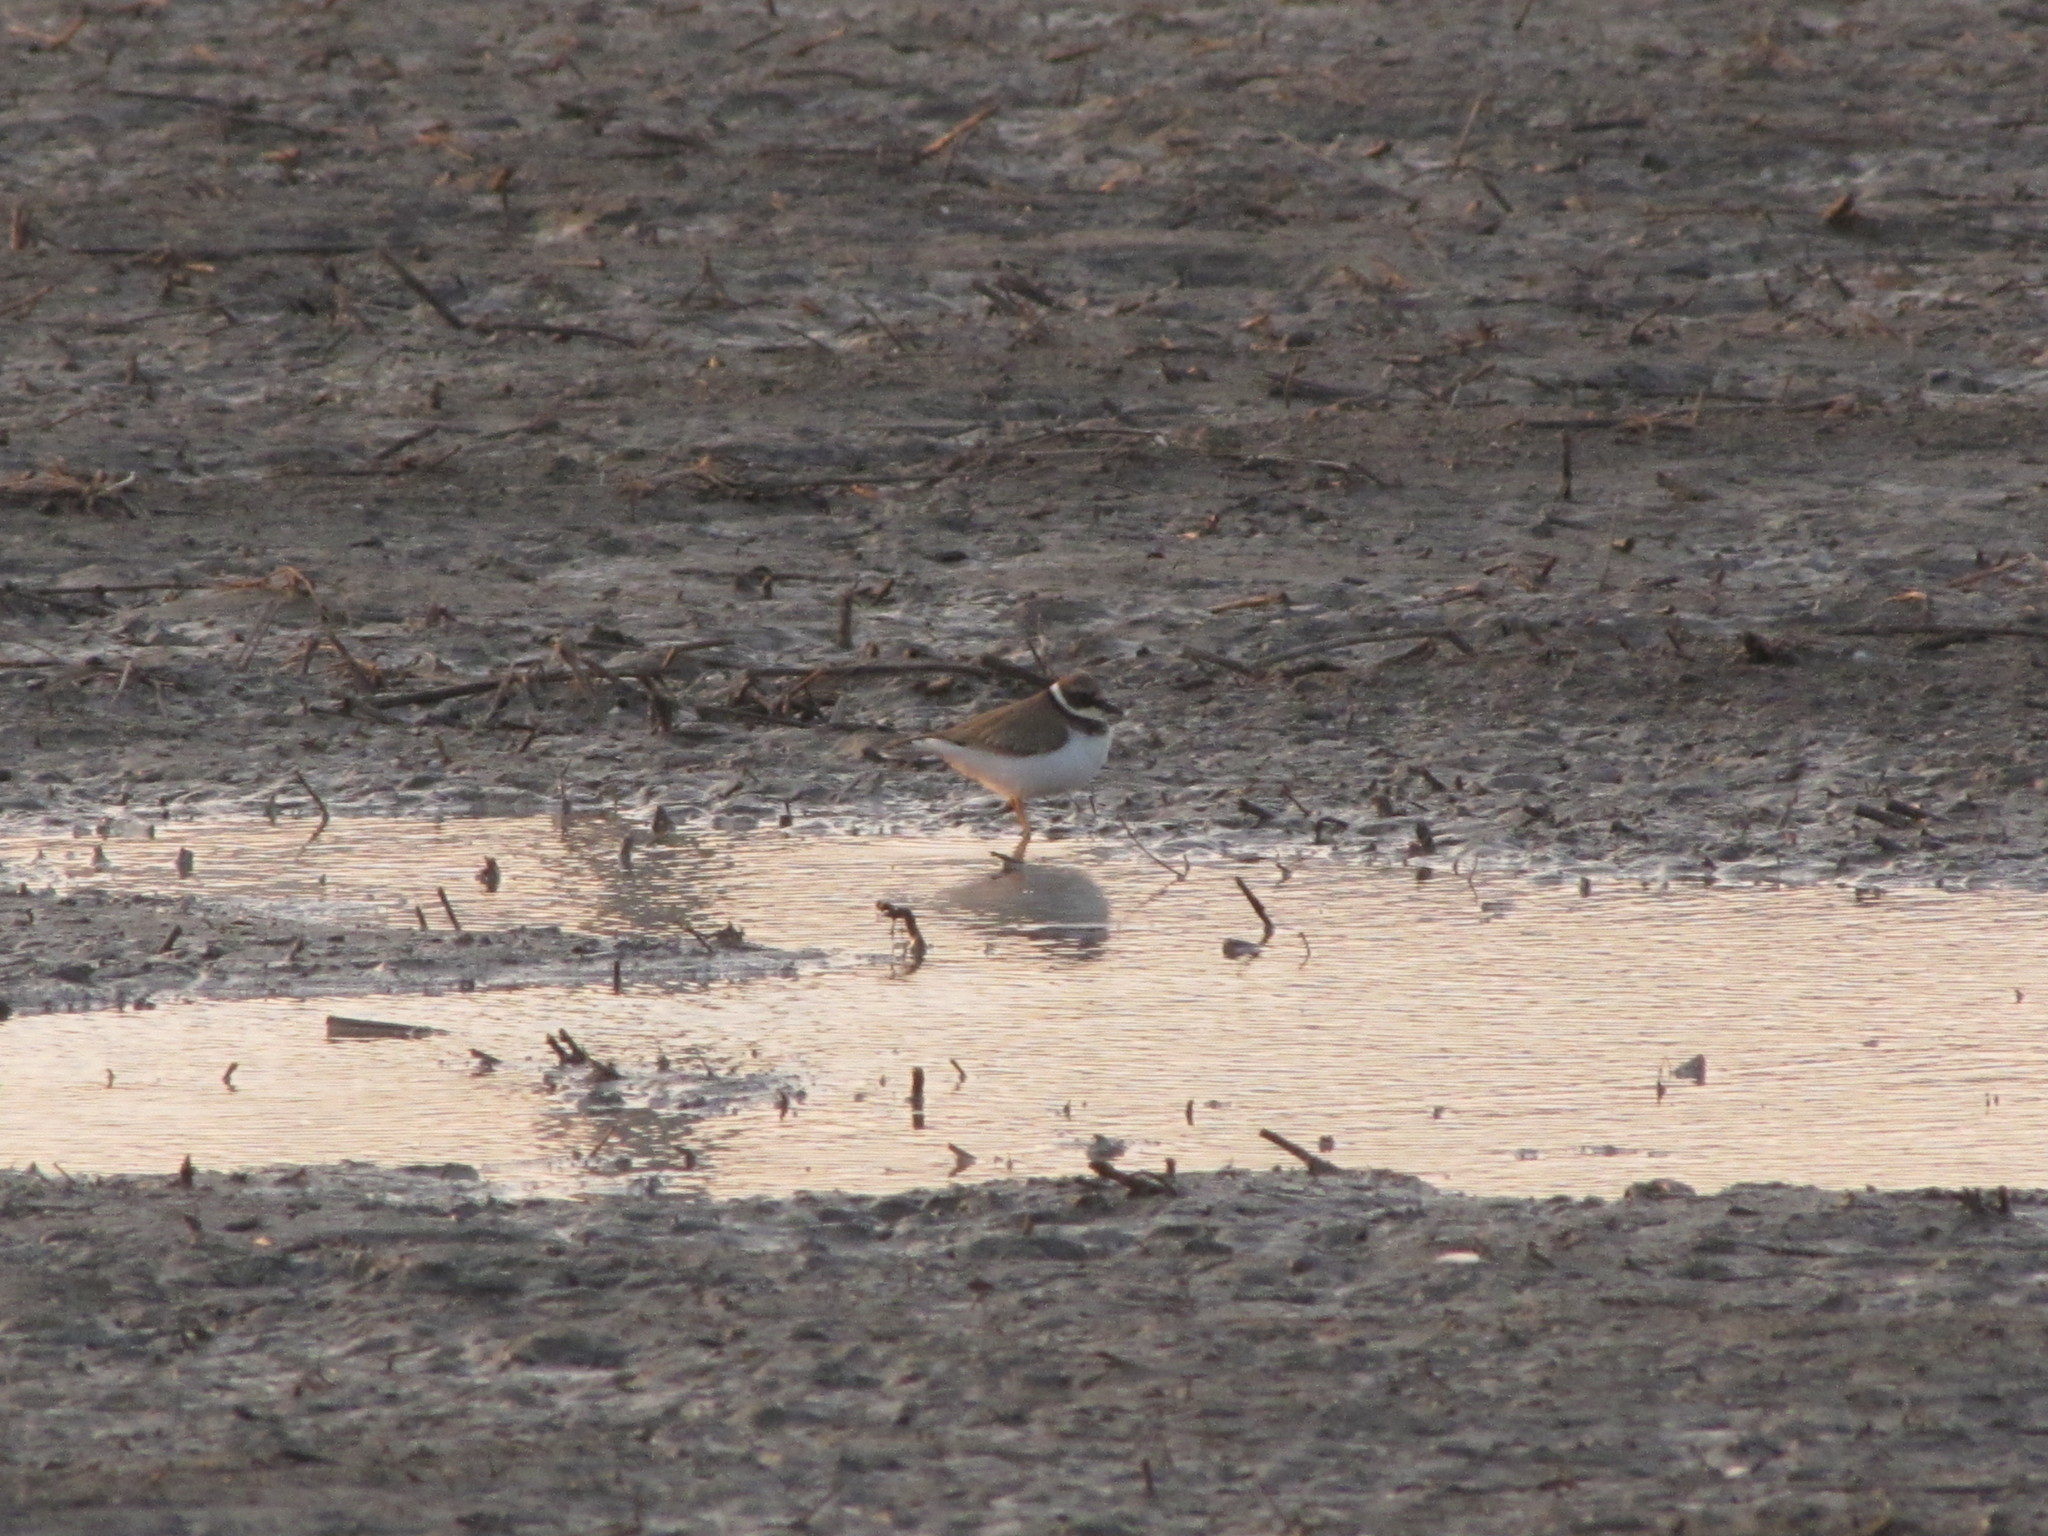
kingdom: Animalia
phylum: Chordata
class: Aves
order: Charadriiformes
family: Charadriidae
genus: Charadrius
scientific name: Charadrius dubius
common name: Little ringed plover
